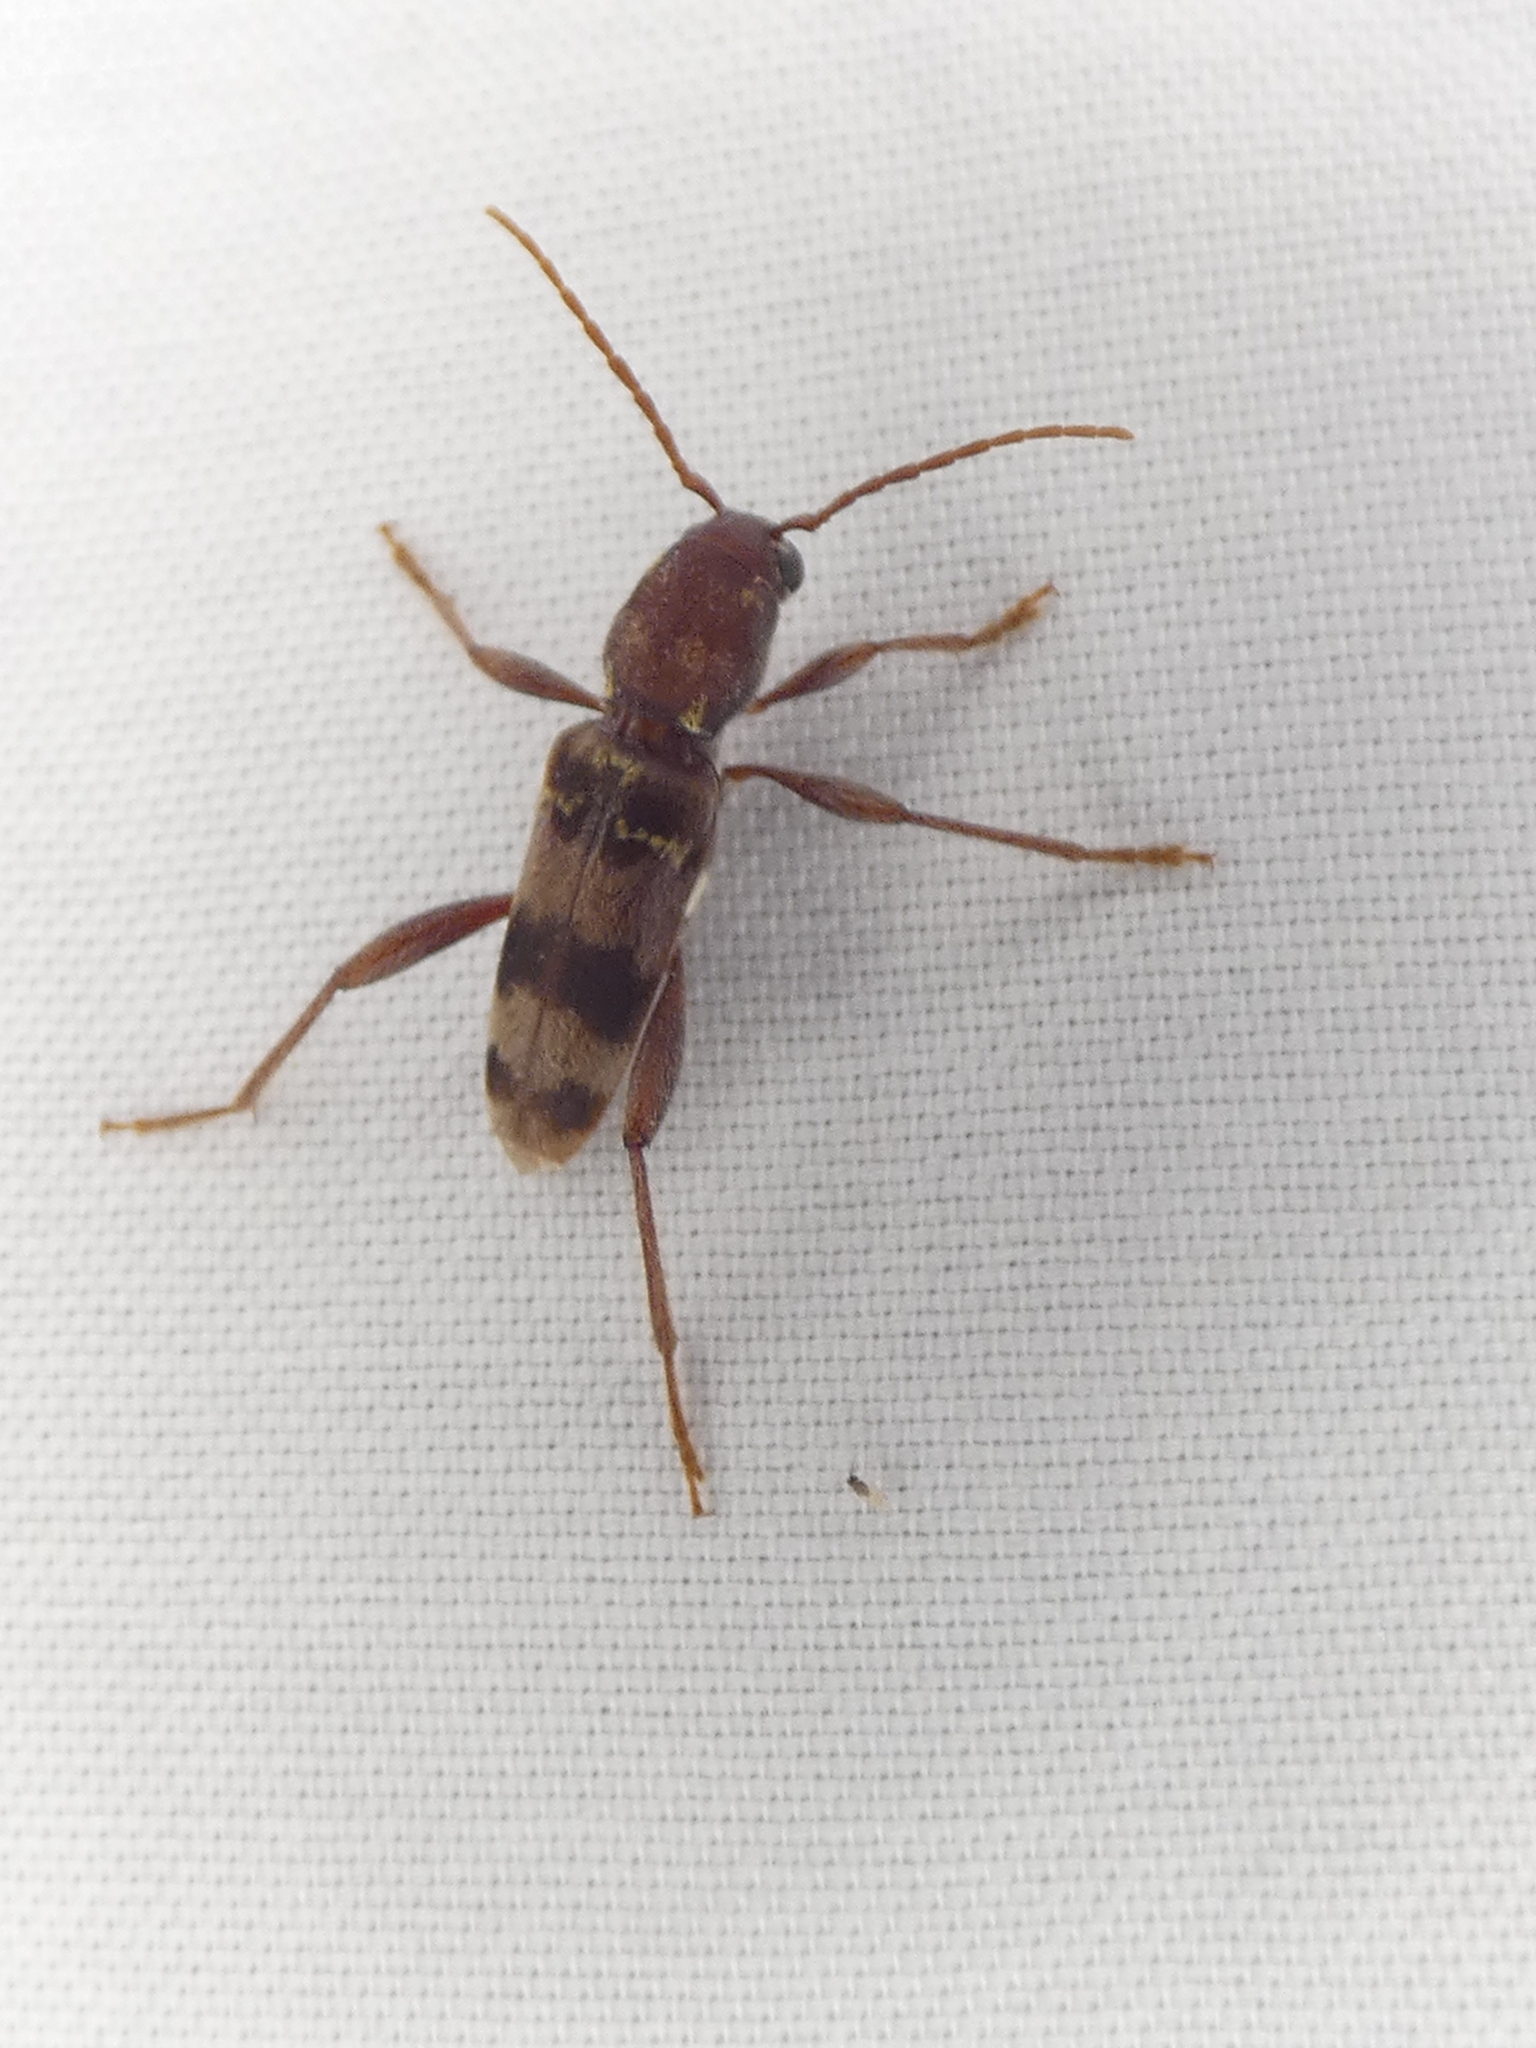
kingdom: Animalia
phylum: Arthropoda
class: Insecta
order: Coleoptera
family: Cerambycidae
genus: Xylotrechus
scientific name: Xylotrechus colonus
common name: Long-horned beetle
